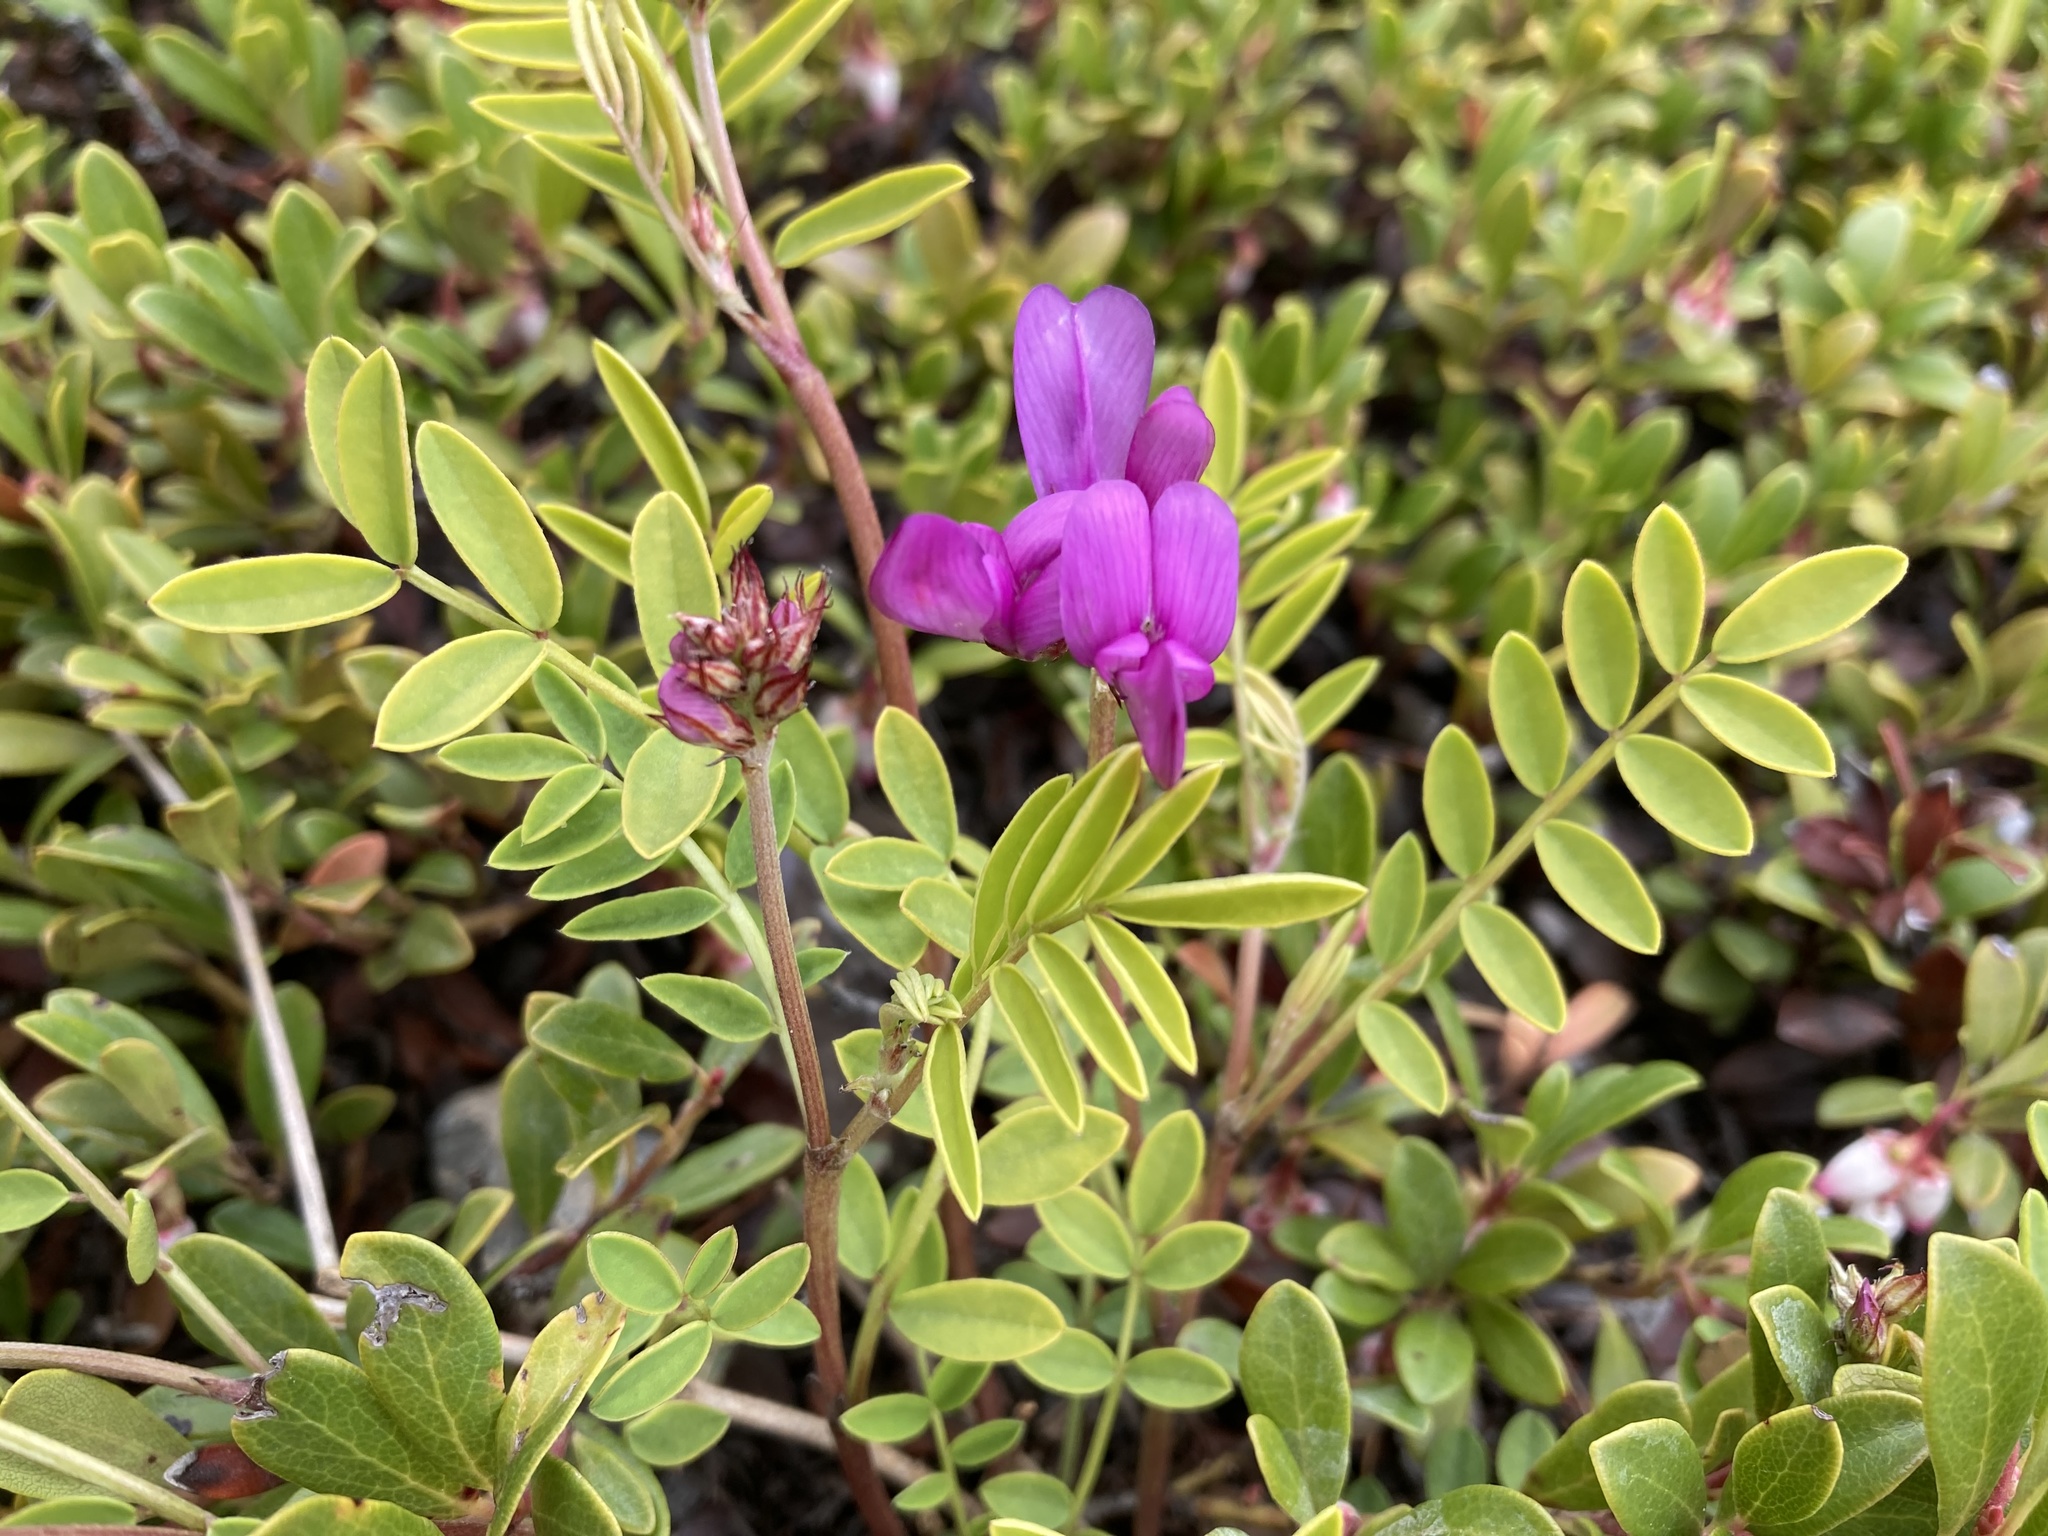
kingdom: Plantae
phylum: Tracheophyta
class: Magnoliopsida
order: Fabales
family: Fabaceae
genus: Hedysarum
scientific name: Hedysarum boreale
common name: Northern sweet-vetch
